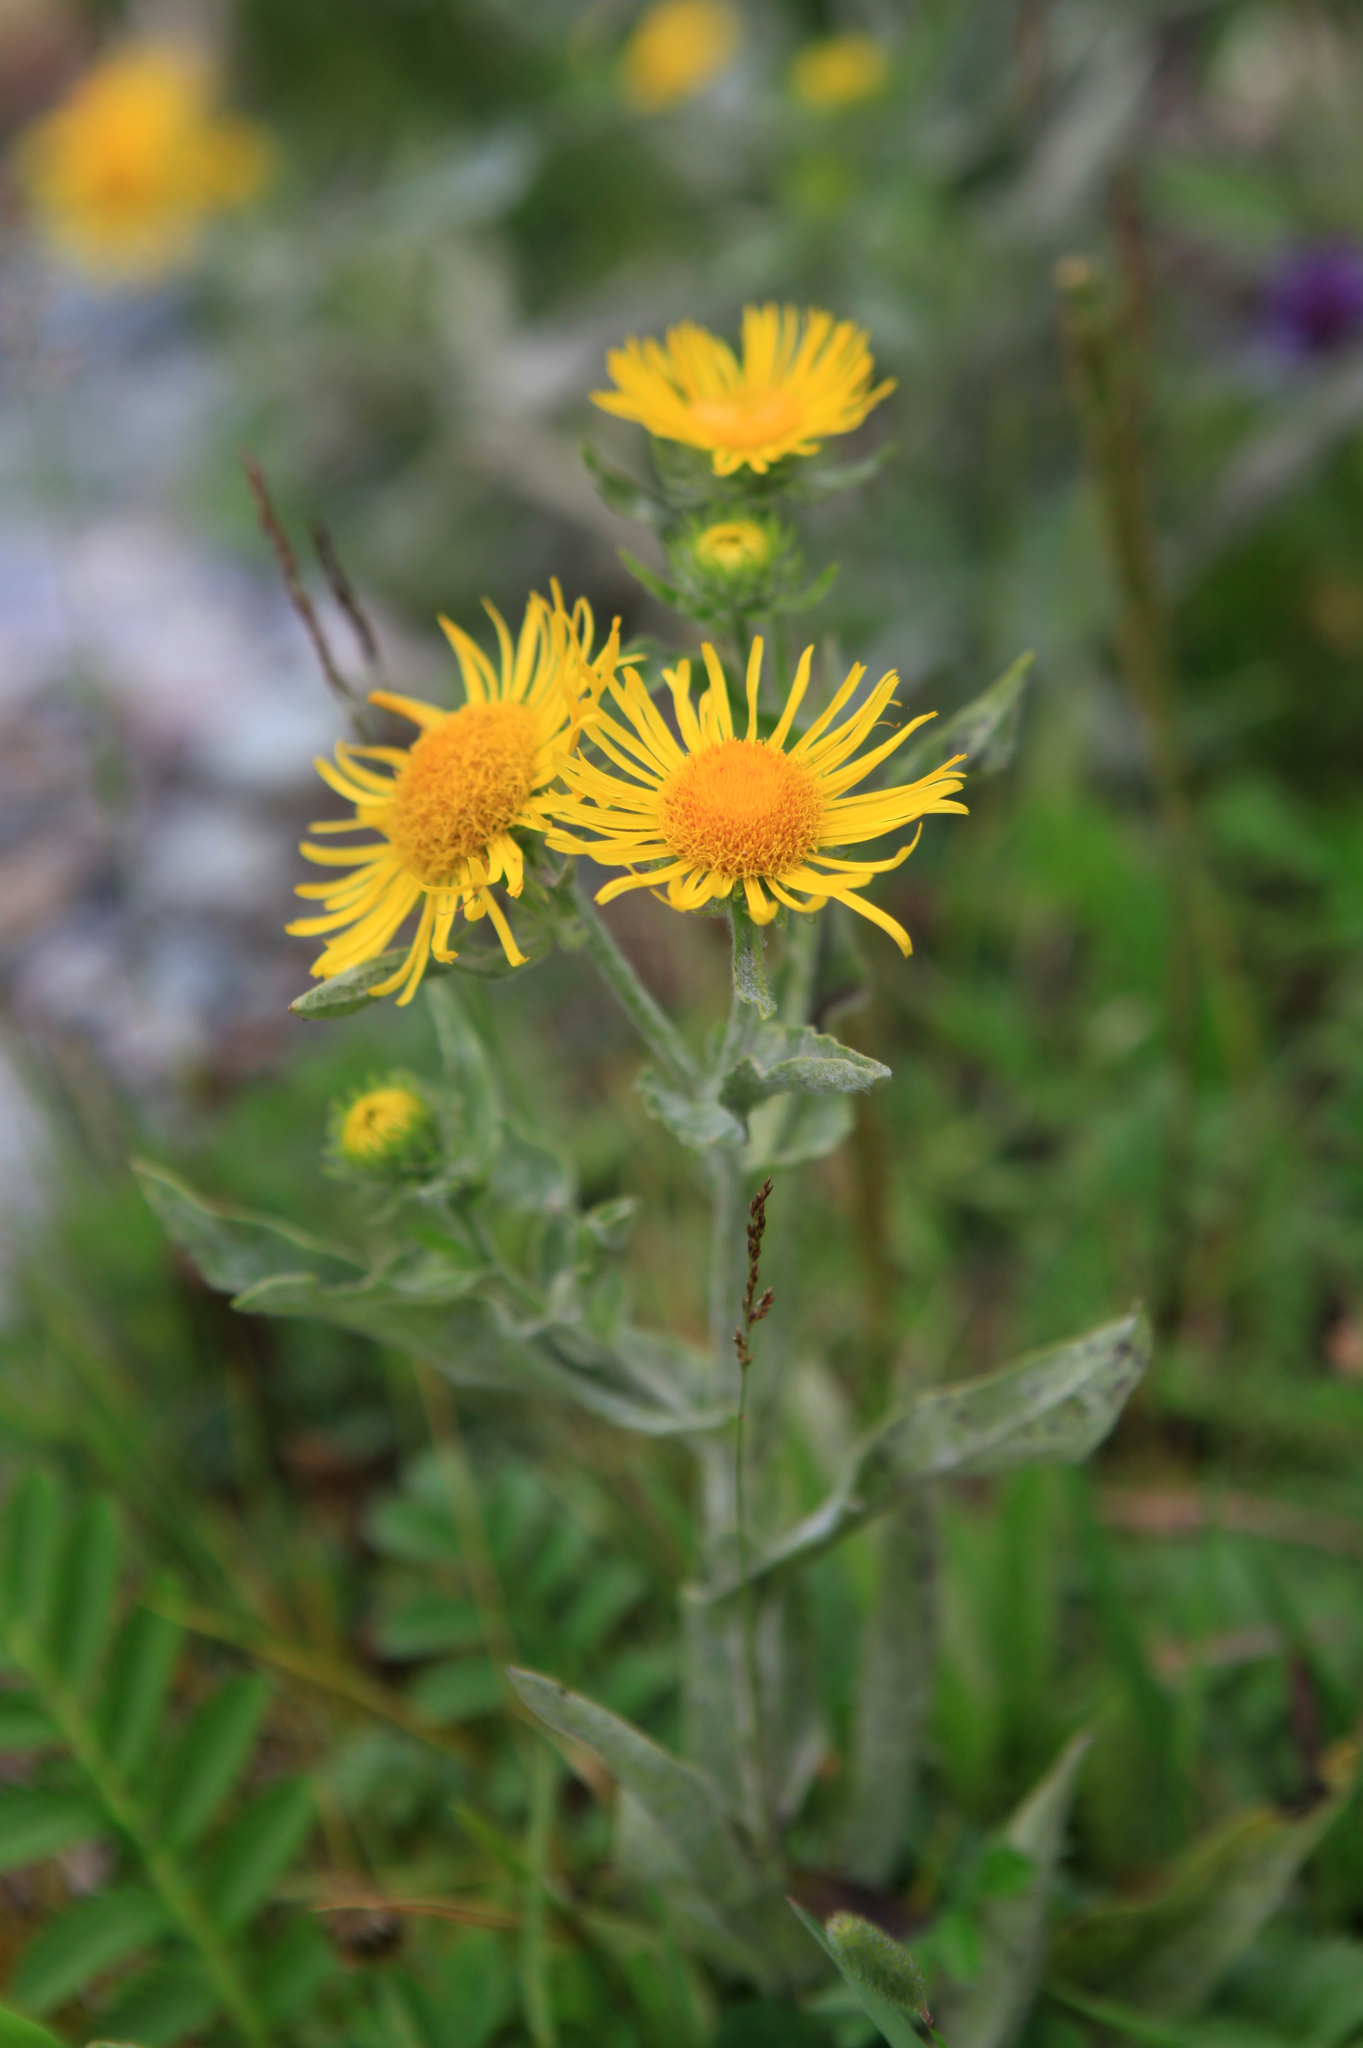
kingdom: Plantae
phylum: Tracheophyta
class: Magnoliopsida
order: Asterales
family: Asteraceae
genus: Pentanema
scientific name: Pentanema britannicum
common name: British elecampane
